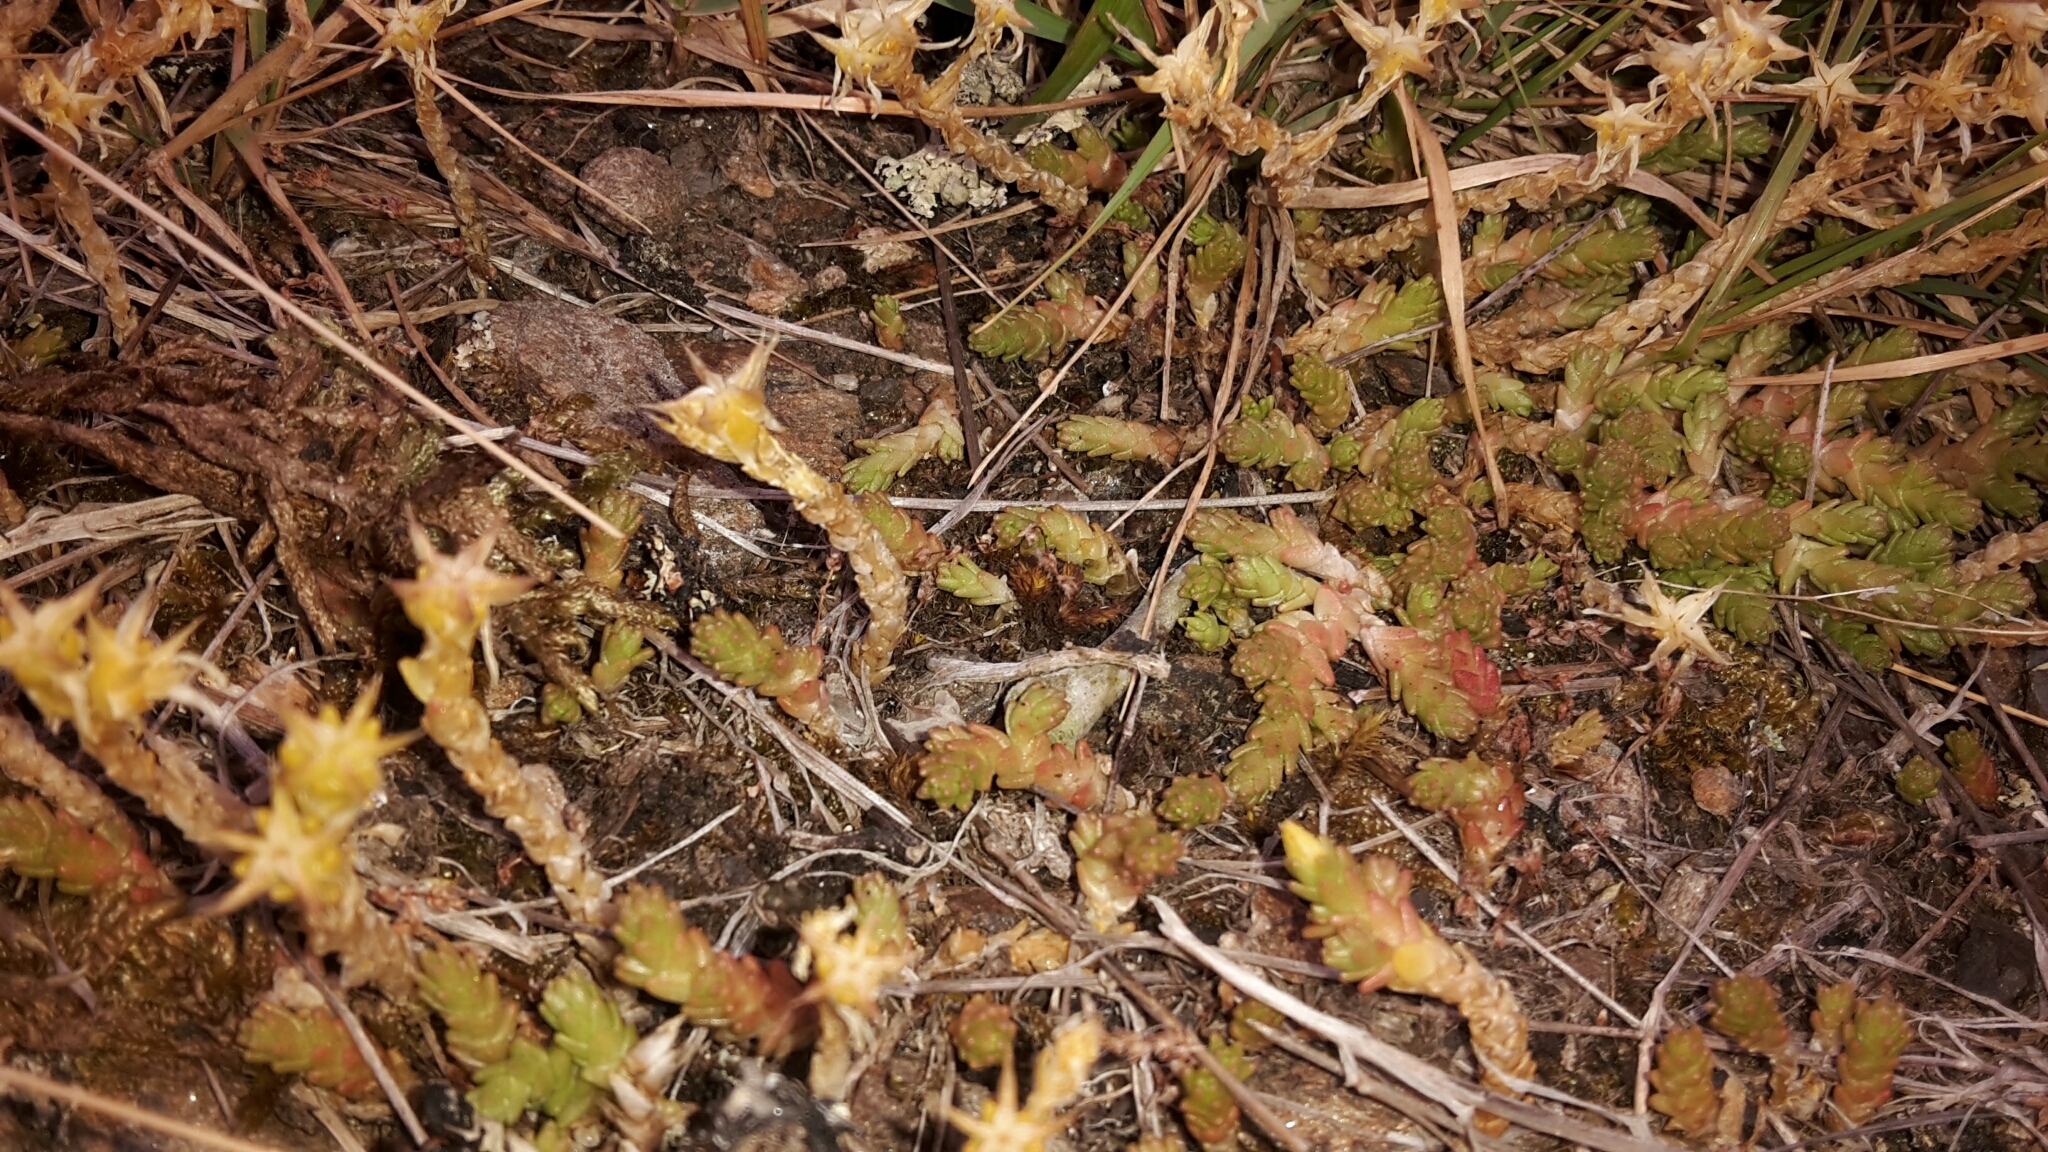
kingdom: Plantae
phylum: Tracheophyta
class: Magnoliopsida
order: Saxifragales
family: Crassulaceae
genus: Sedum
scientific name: Sedum acre
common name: Biting stonecrop
